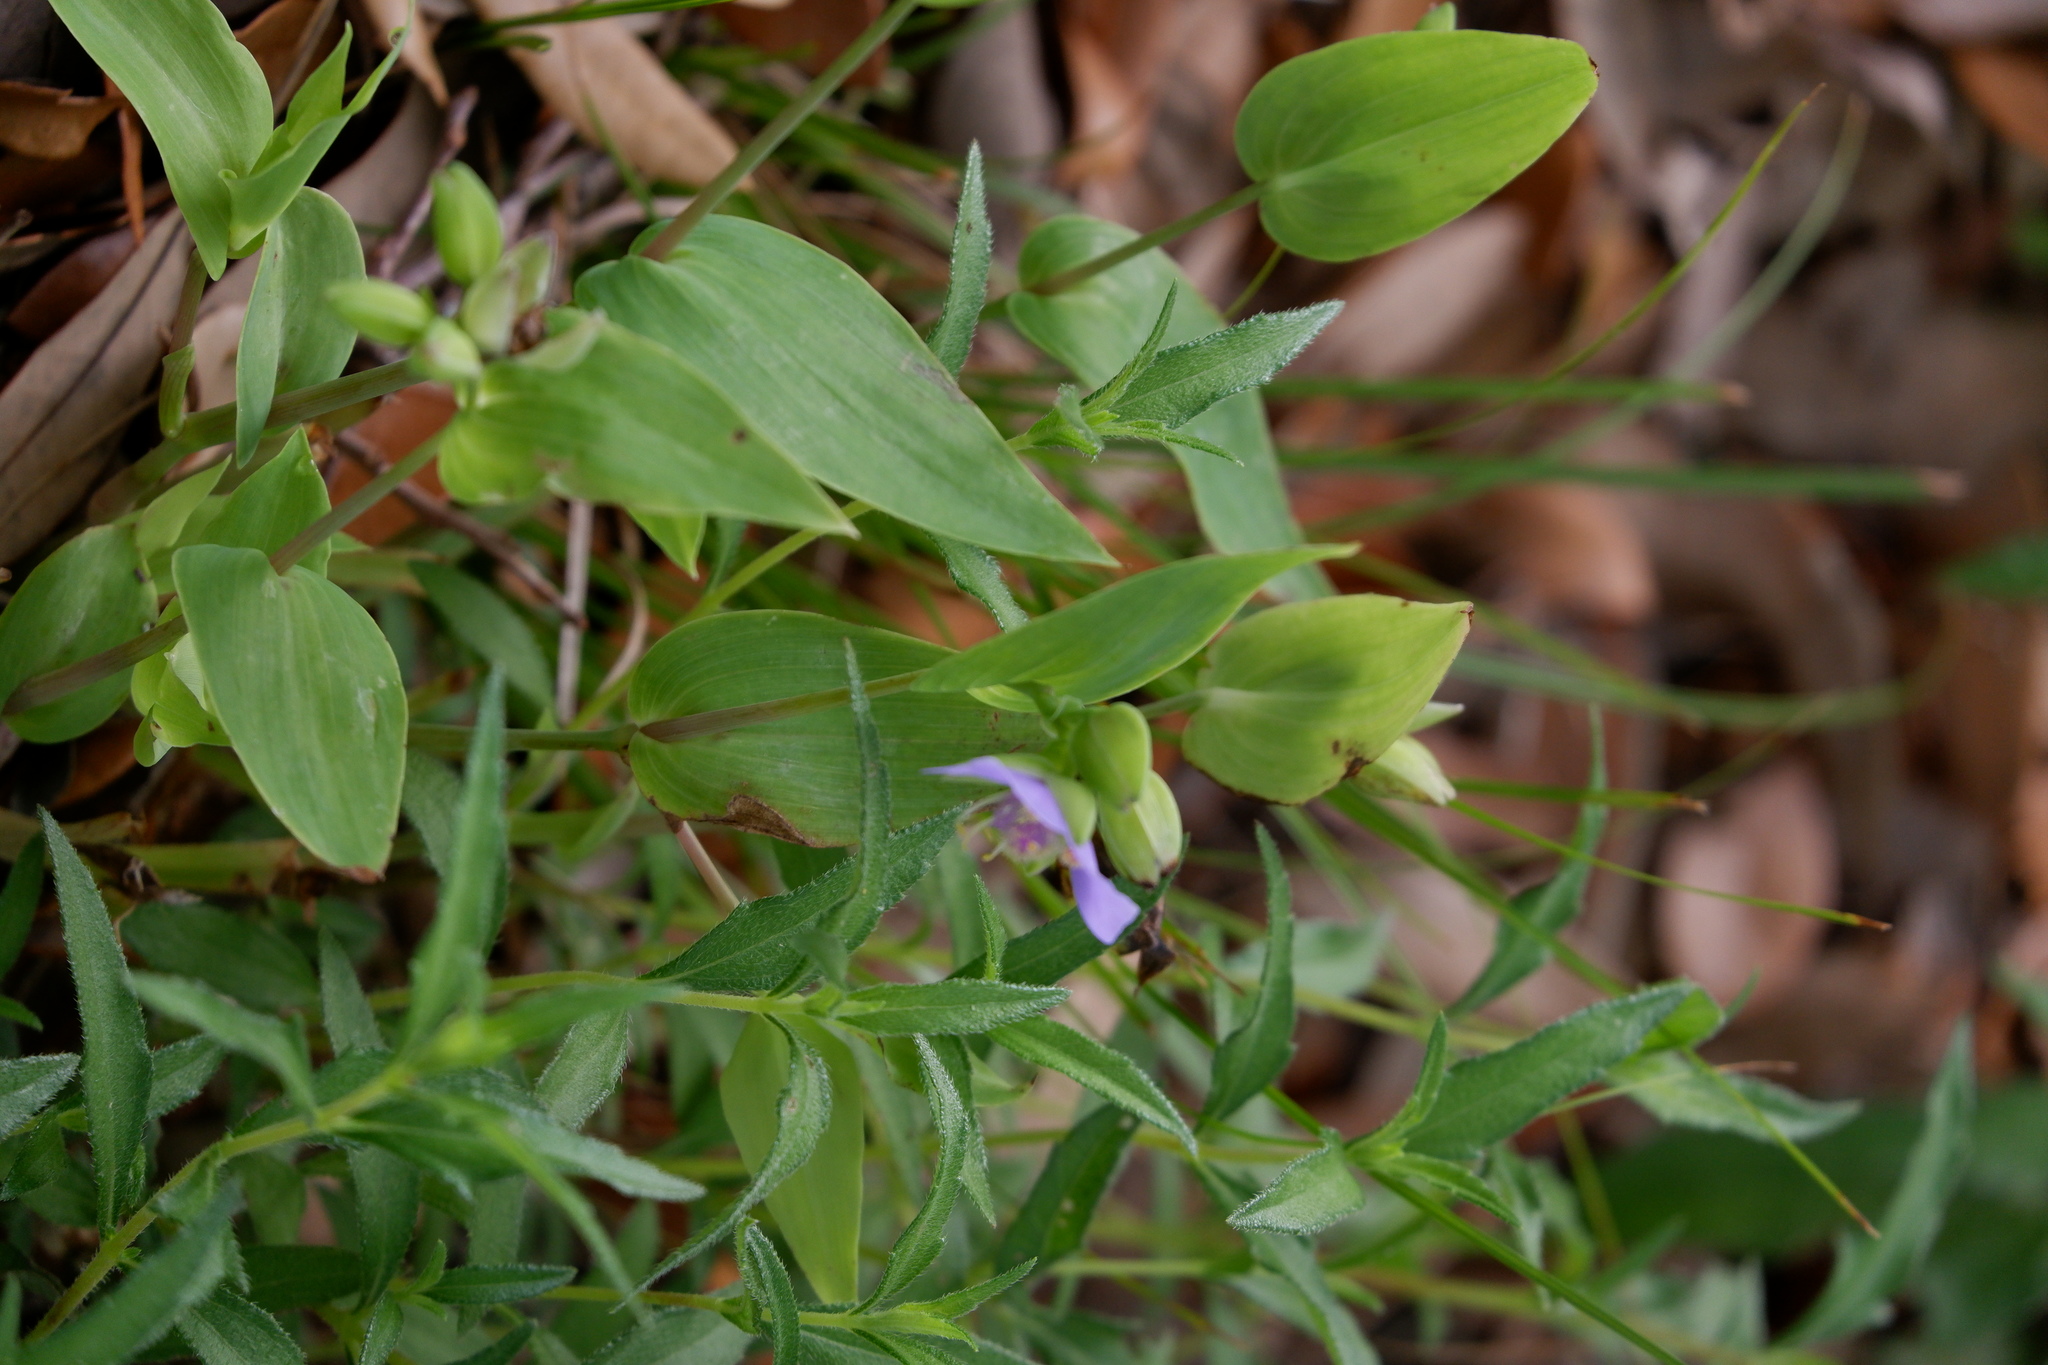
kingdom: Plantae
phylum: Tracheophyta
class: Liliopsida
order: Commelinales
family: Commelinaceae
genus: Tinantia
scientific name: Tinantia anomala
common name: False dayflower
